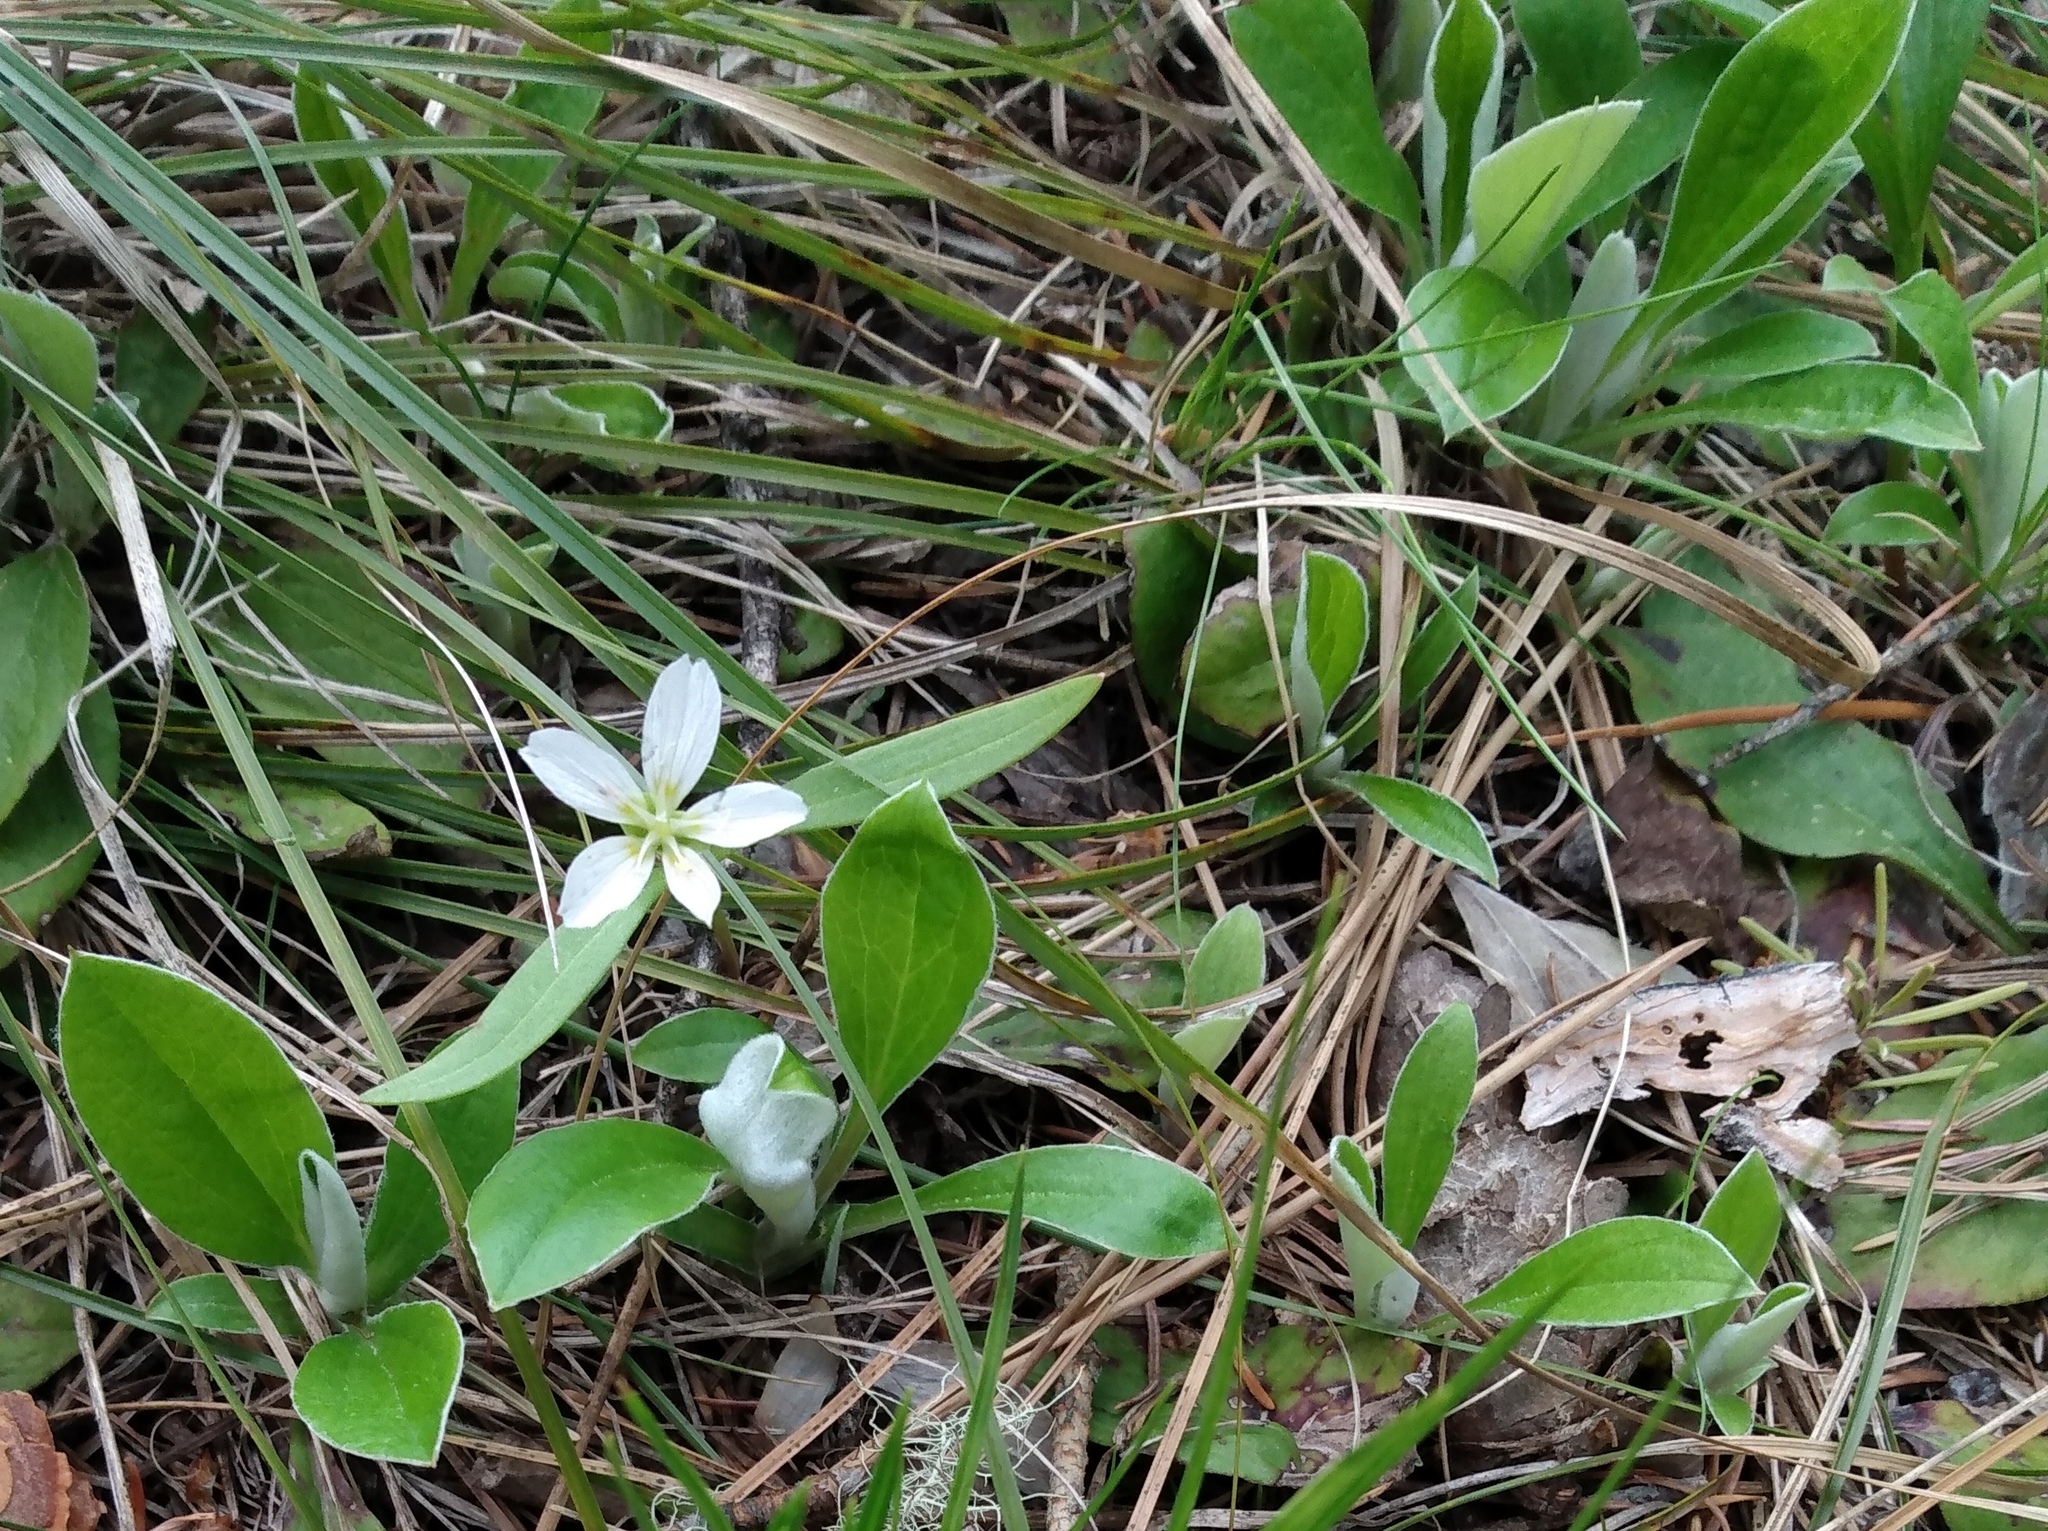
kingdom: Plantae
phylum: Tracheophyta
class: Magnoliopsida
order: Caryophyllales
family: Montiaceae
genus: Claytonia
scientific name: Claytonia lanceolata
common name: Western spring-beauty
